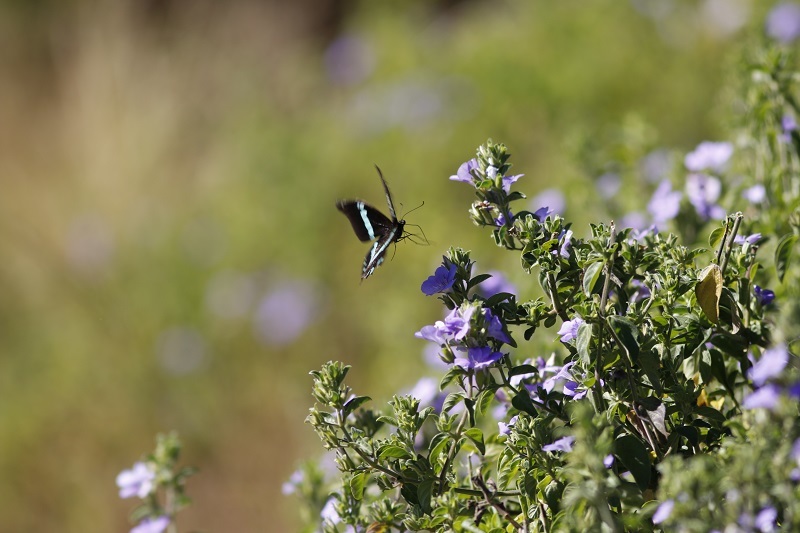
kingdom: Animalia
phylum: Arthropoda
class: Insecta
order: Lepidoptera
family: Papilionidae
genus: Papilio
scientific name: Papilio nireus
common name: Greenbanded swallowtail
